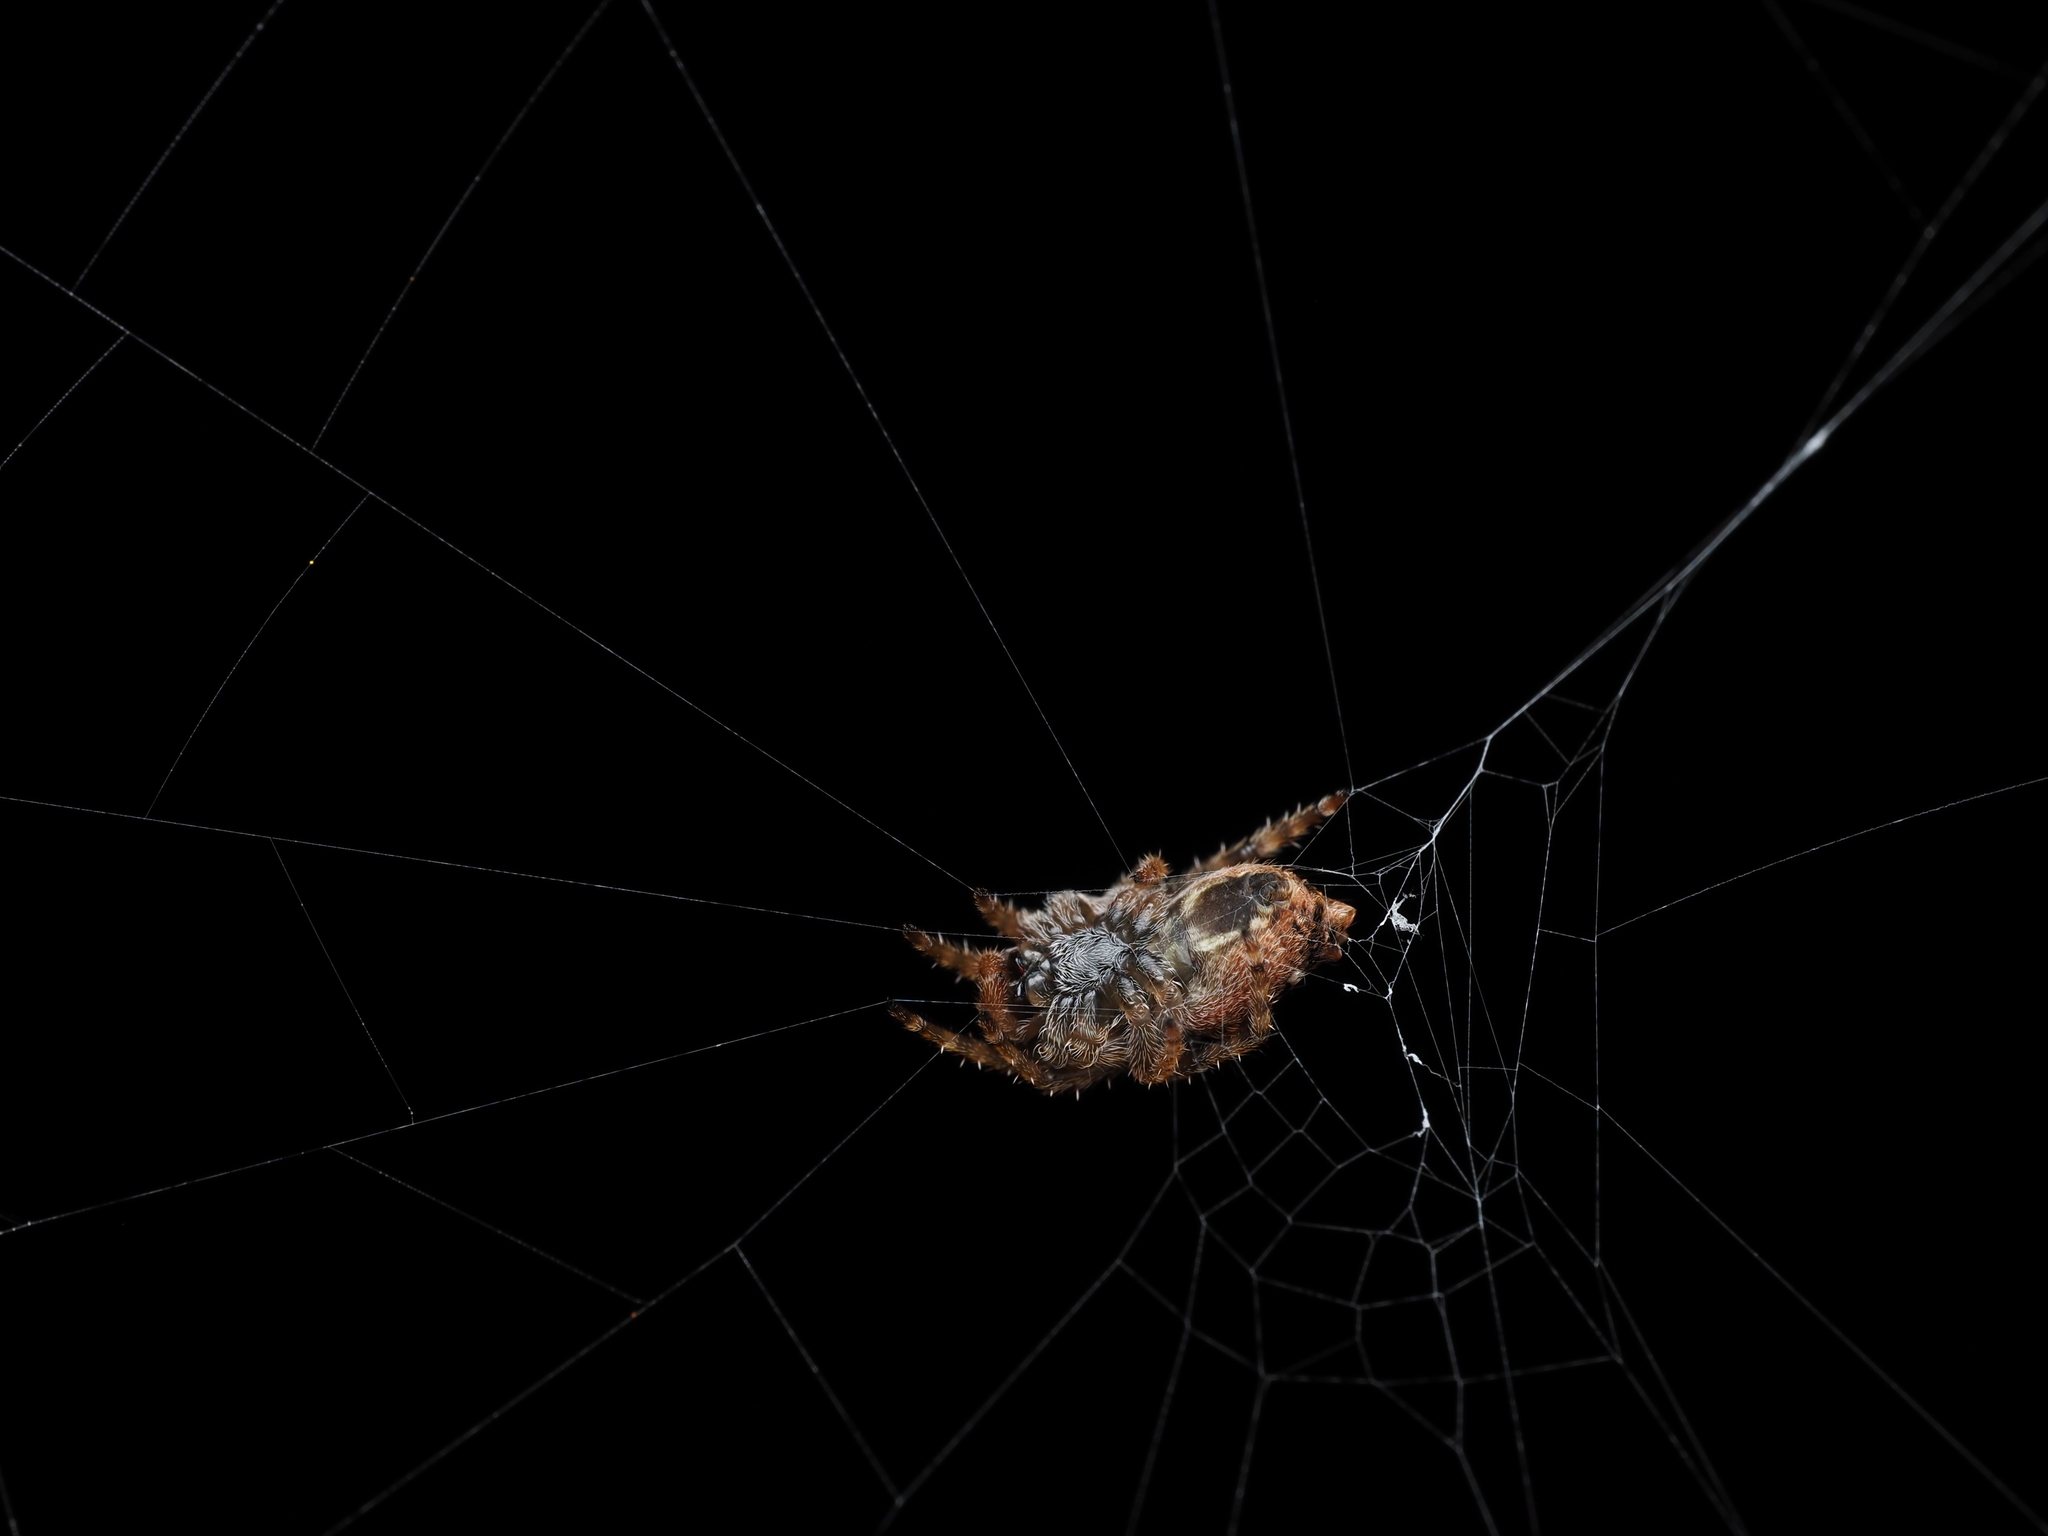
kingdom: Animalia
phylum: Arthropoda
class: Arachnida
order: Araneae
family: Araneidae
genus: Eriophora
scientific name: Eriophora pustulosa
